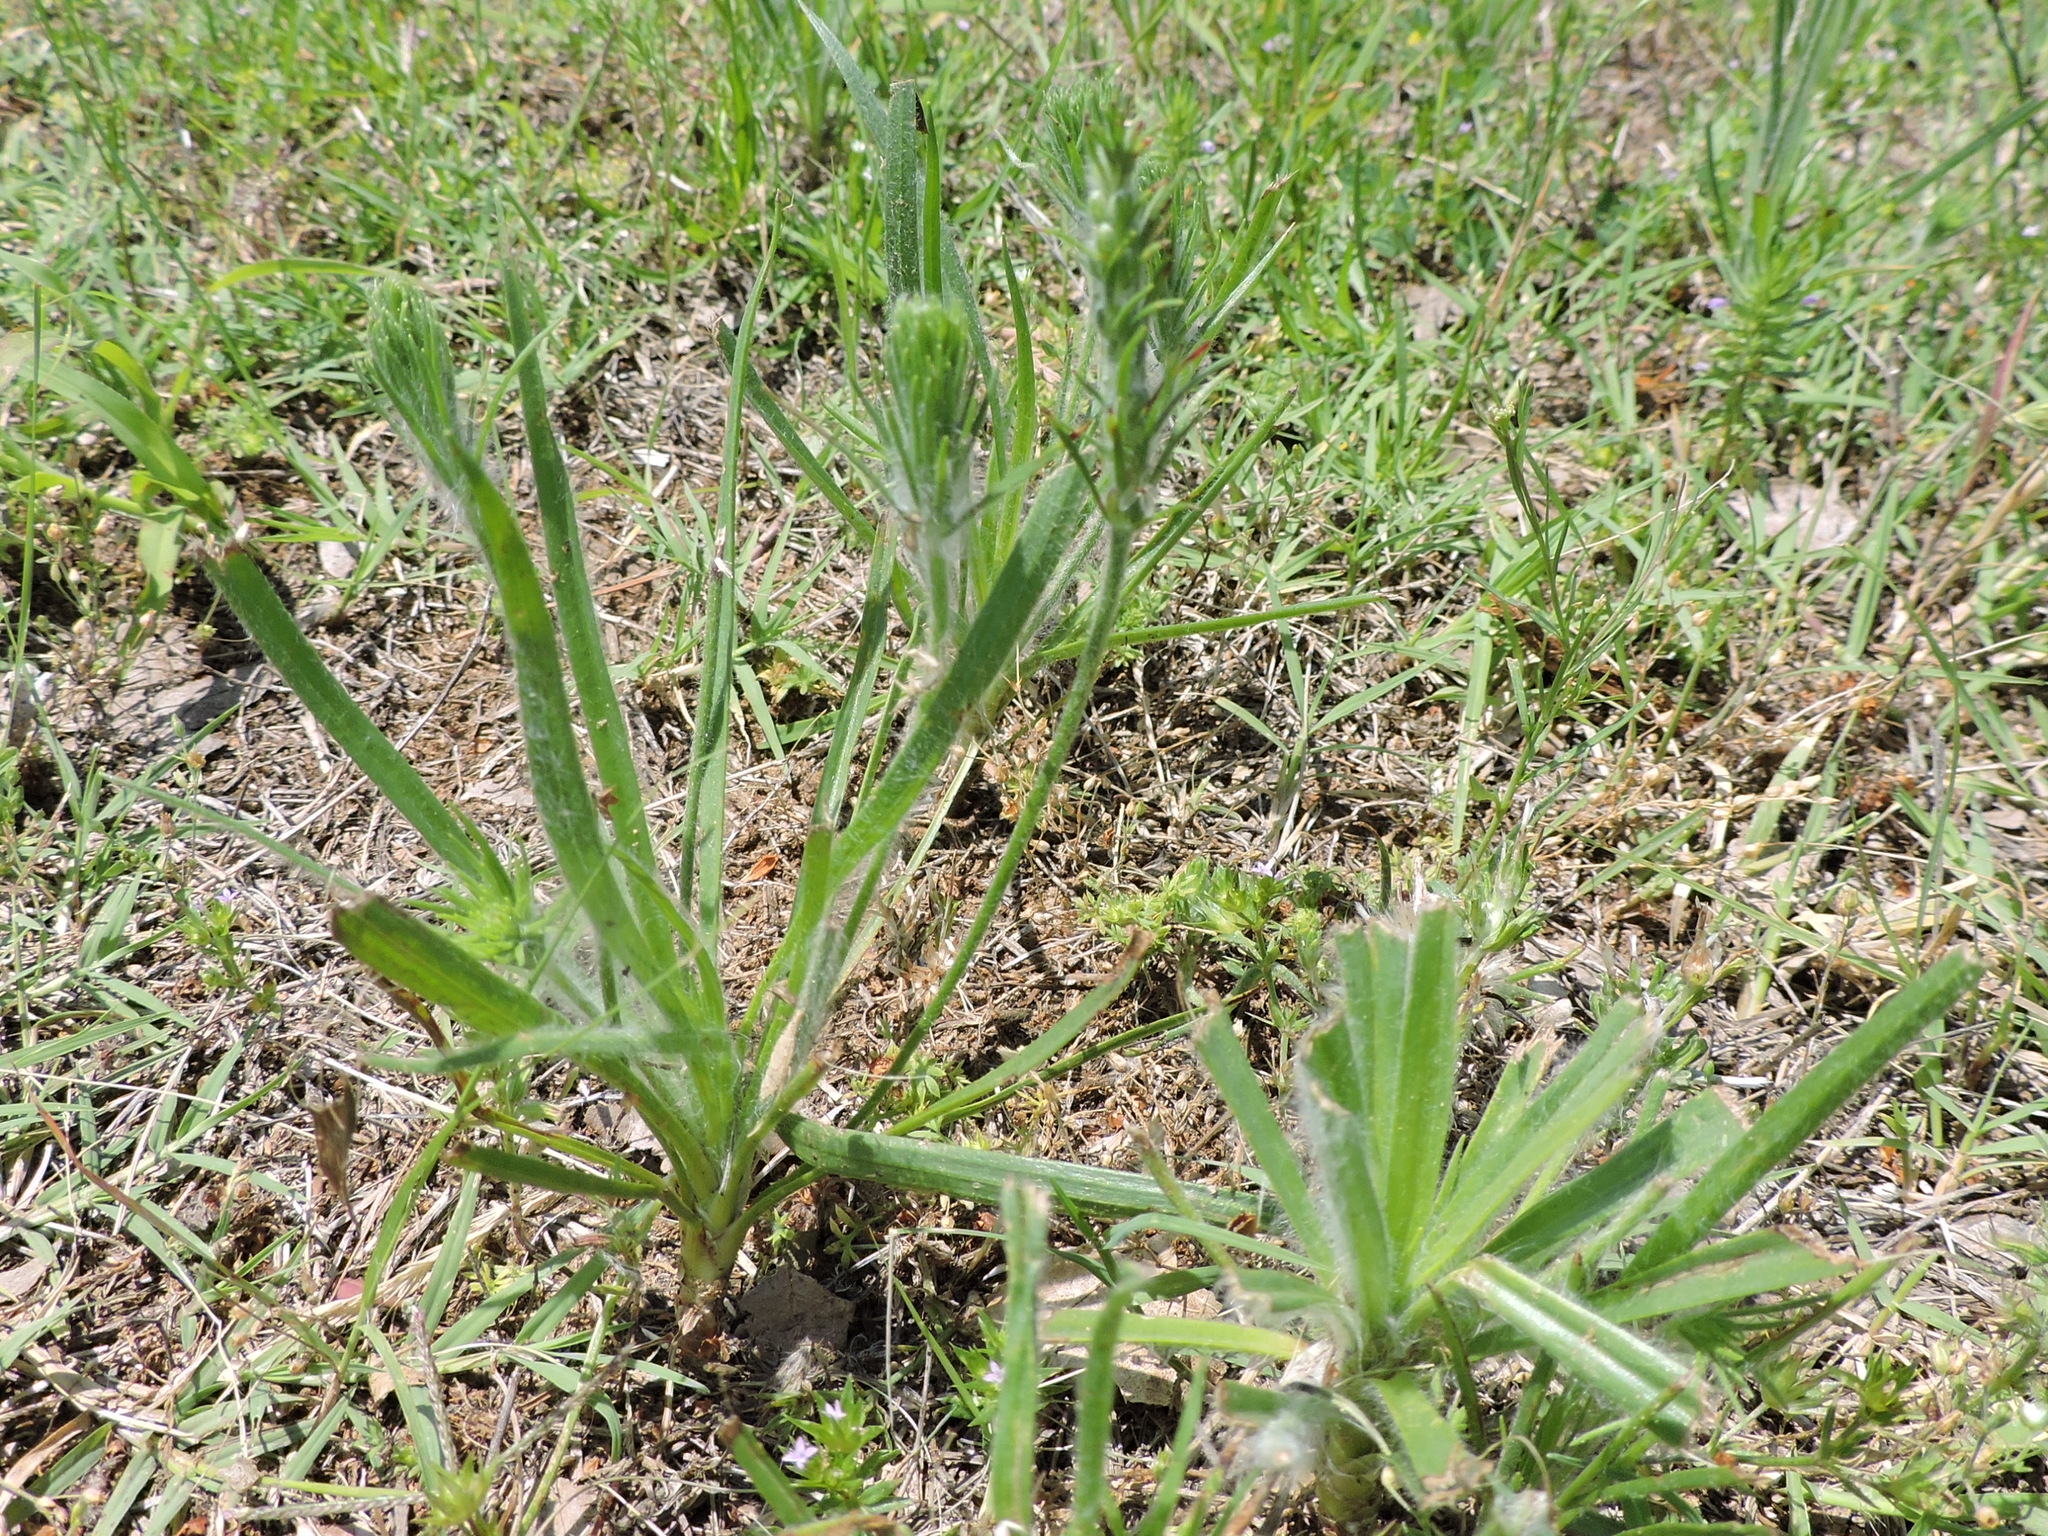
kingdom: Plantae
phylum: Tracheophyta
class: Magnoliopsida
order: Lamiales
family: Plantaginaceae
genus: Plantago
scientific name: Plantago aristata
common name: Bracted plantain
